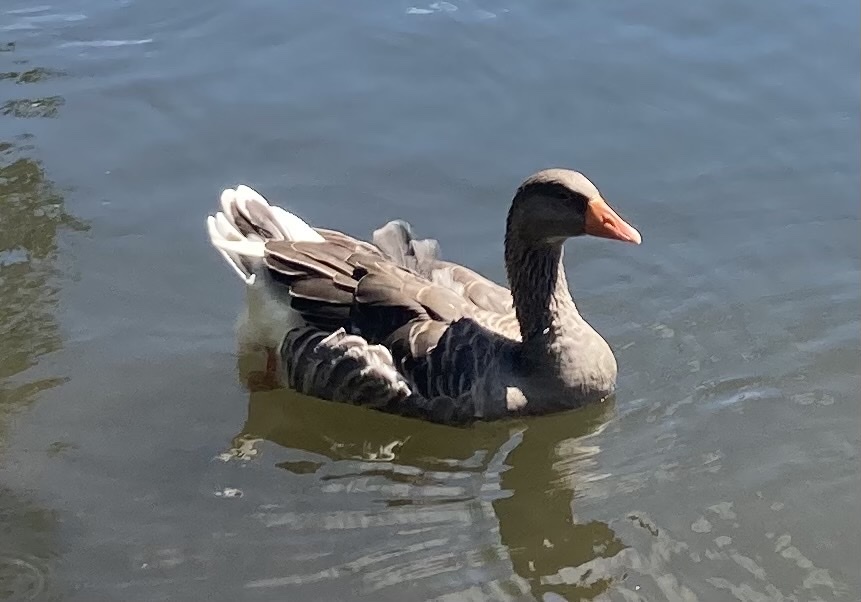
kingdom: Animalia
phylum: Chordata
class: Aves
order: Anseriformes
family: Anatidae
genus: Anser
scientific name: Anser anser
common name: Greylag goose
